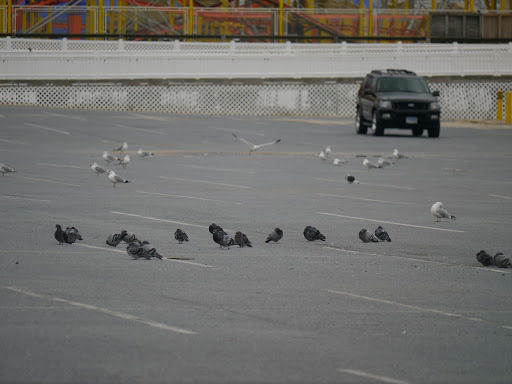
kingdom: Animalia
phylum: Chordata
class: Aves
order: Columbiformes
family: Columbidae
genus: Columba
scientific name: Columba livia
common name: Rock pigeon
